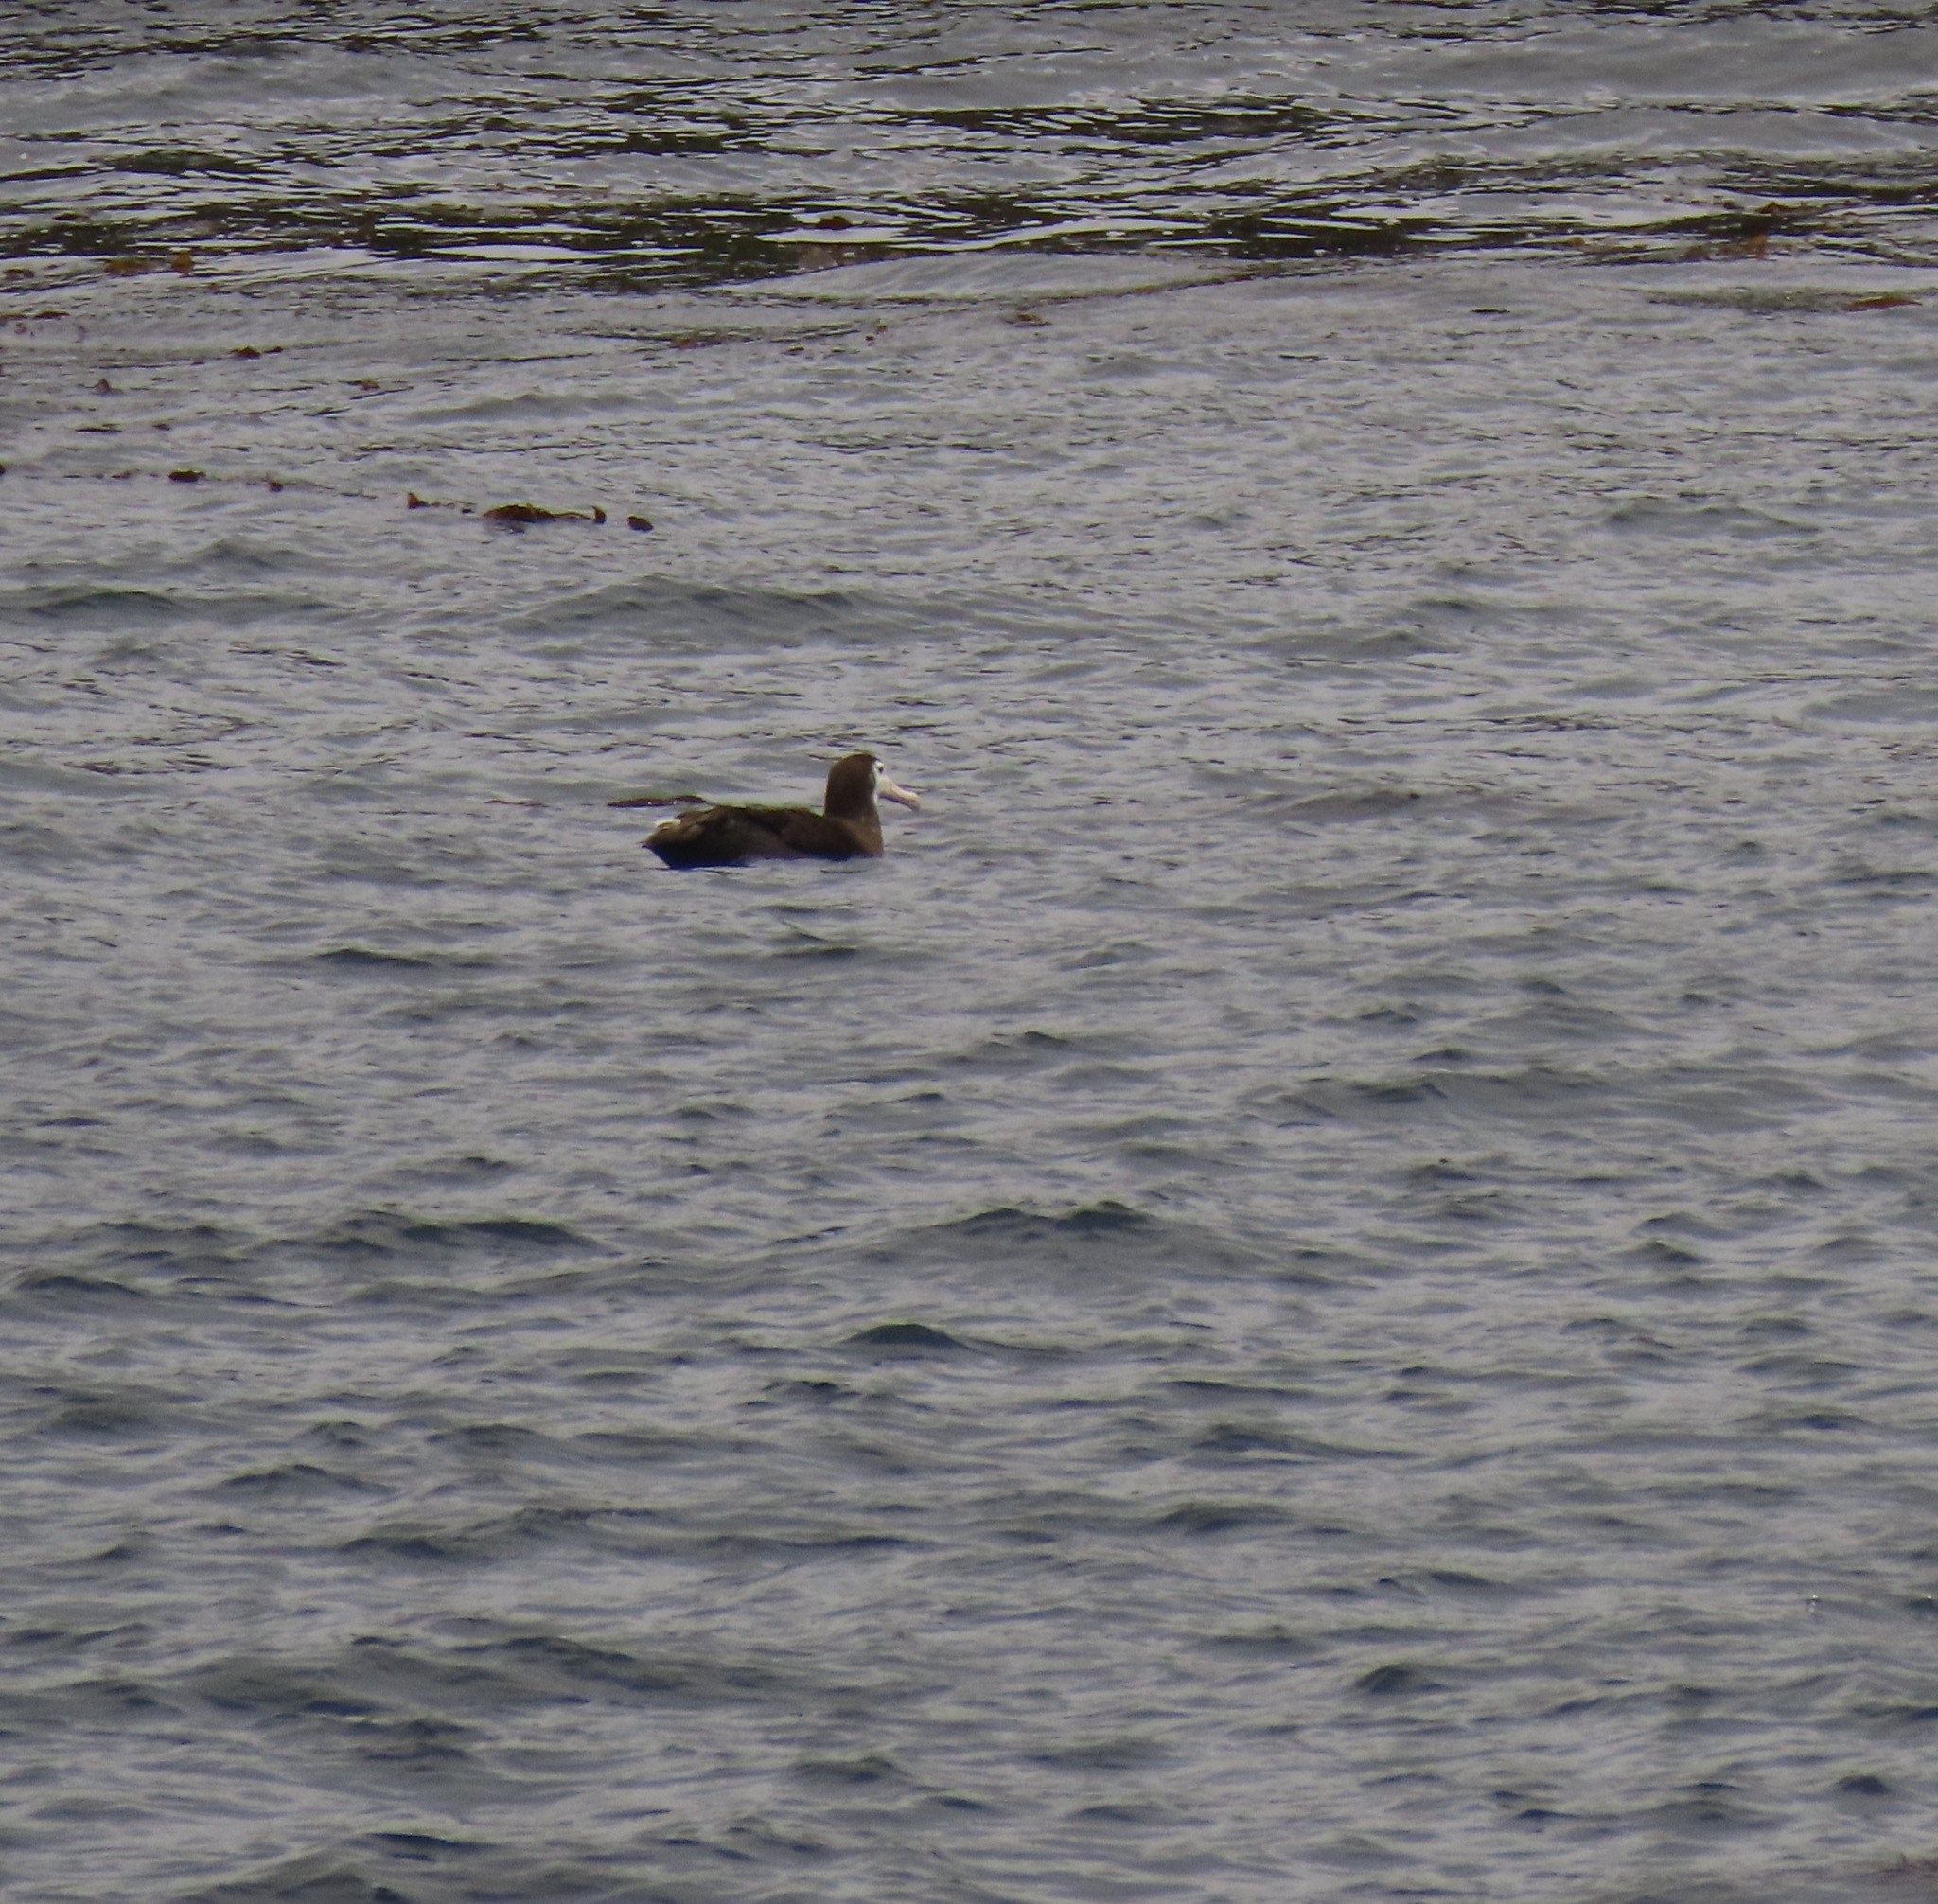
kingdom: Animalia
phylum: Chordata
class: Aves
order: Procellariiformes
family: Diomedeidae
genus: Diomedea
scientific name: Diomedea antipodensis
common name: Antipodean albatross
